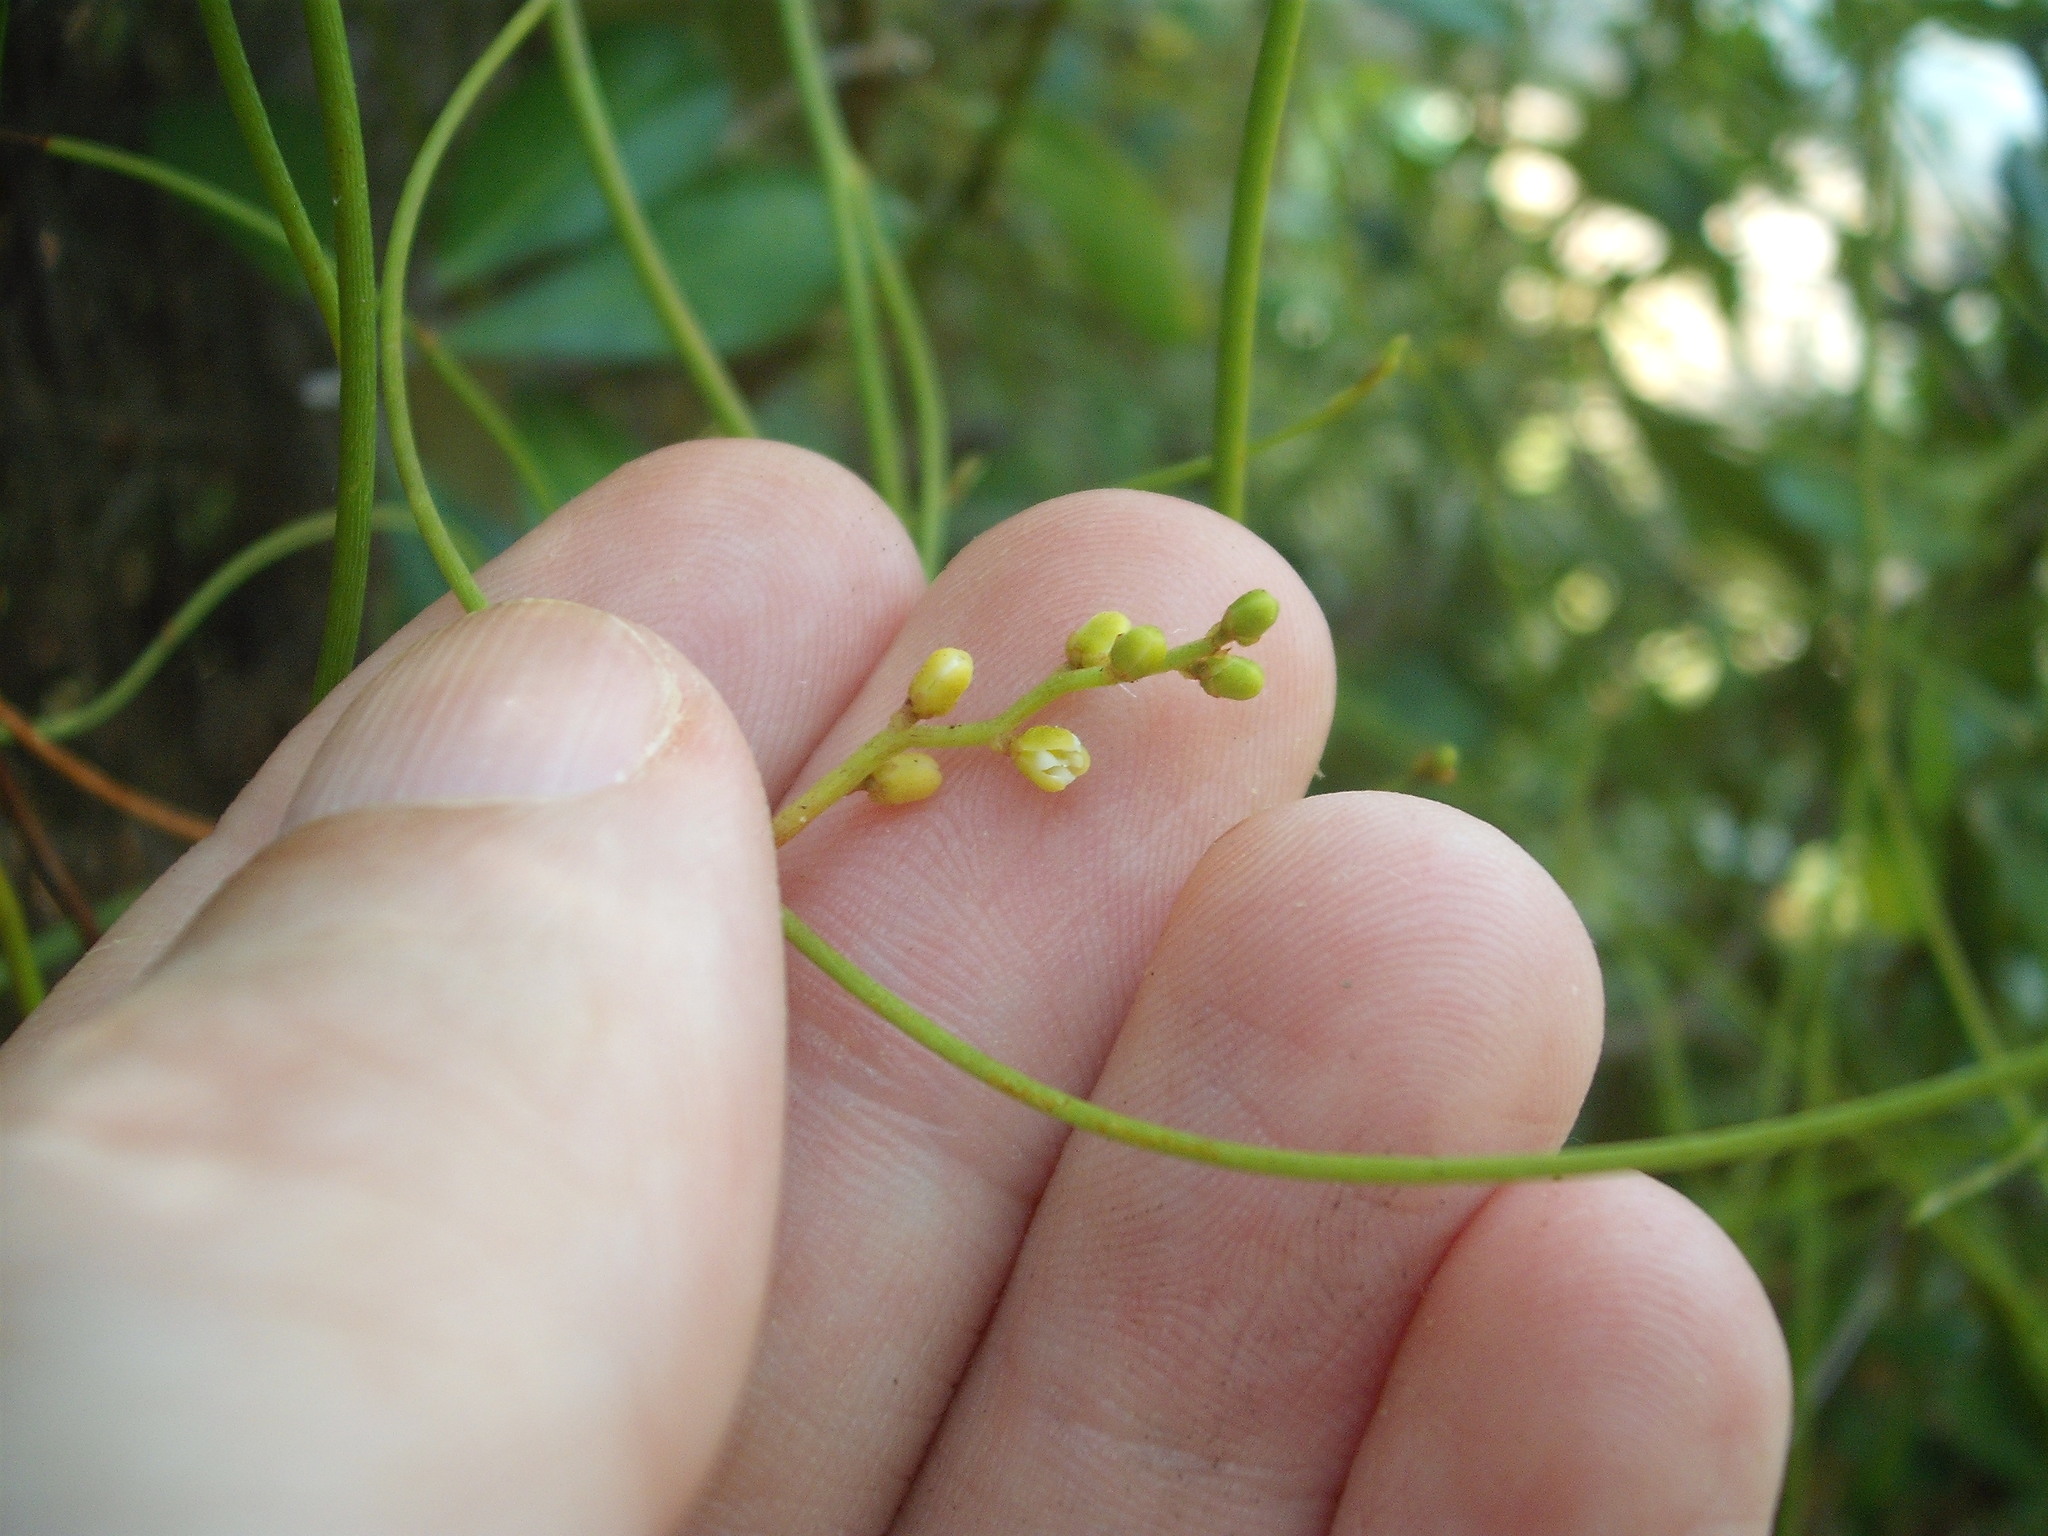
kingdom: Plantae
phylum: Tracheophyta
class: Magnoliopsida
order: Laurales
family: Lauraceae
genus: Cassytha
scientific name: Cassytha paniculata
